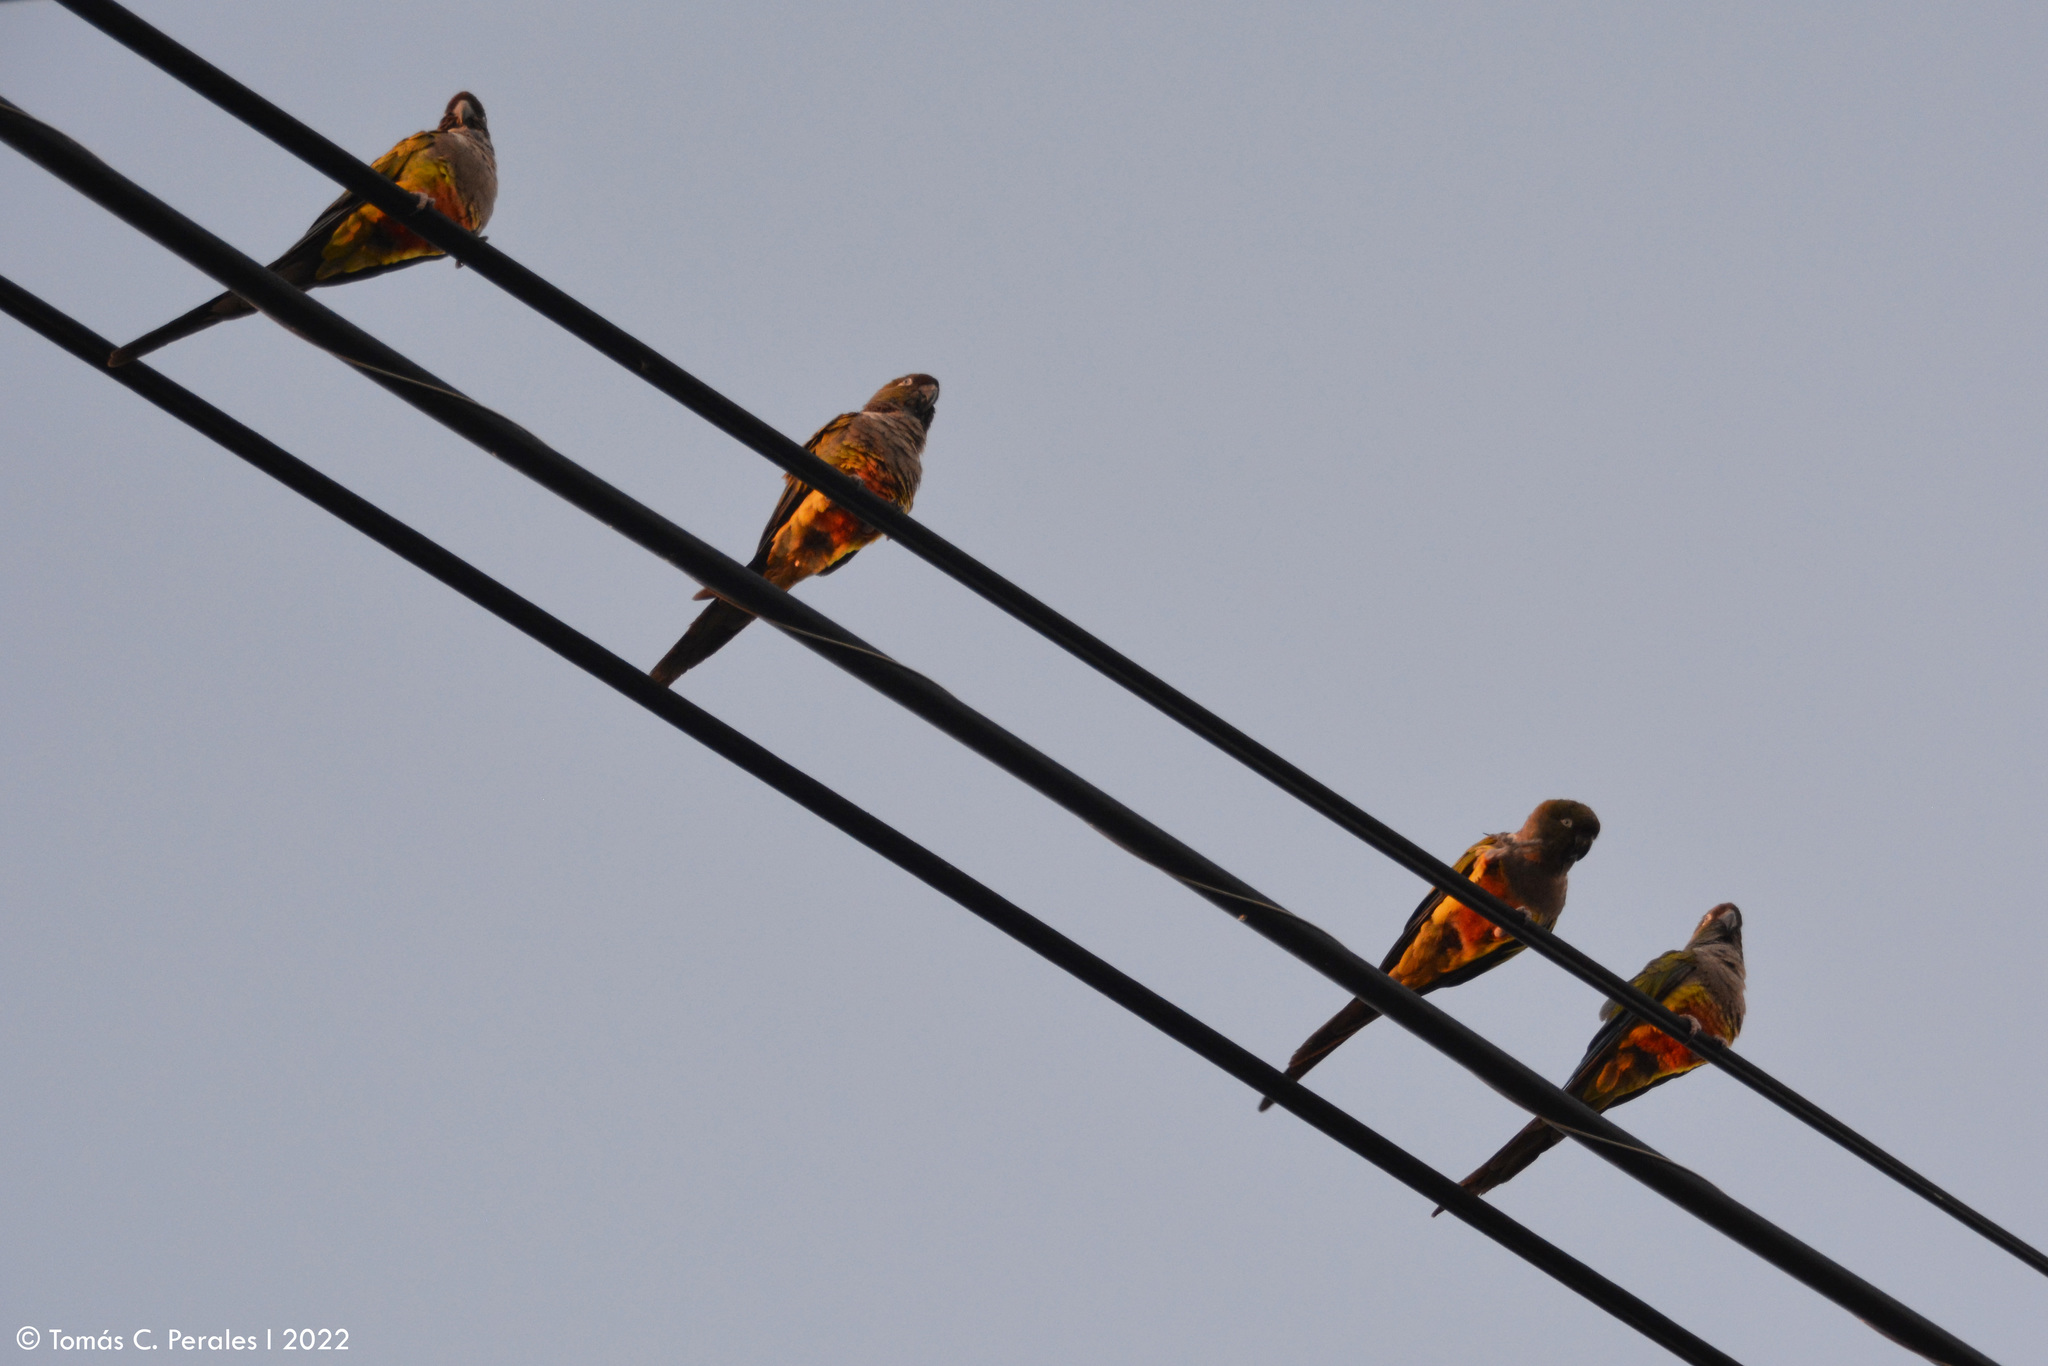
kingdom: Animalia
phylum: Chordata
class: Aves
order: Psittaciformes
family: Psittacidae
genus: Cyanoliseus
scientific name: Cyanoliseus patagonus
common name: Burrowing parrot
